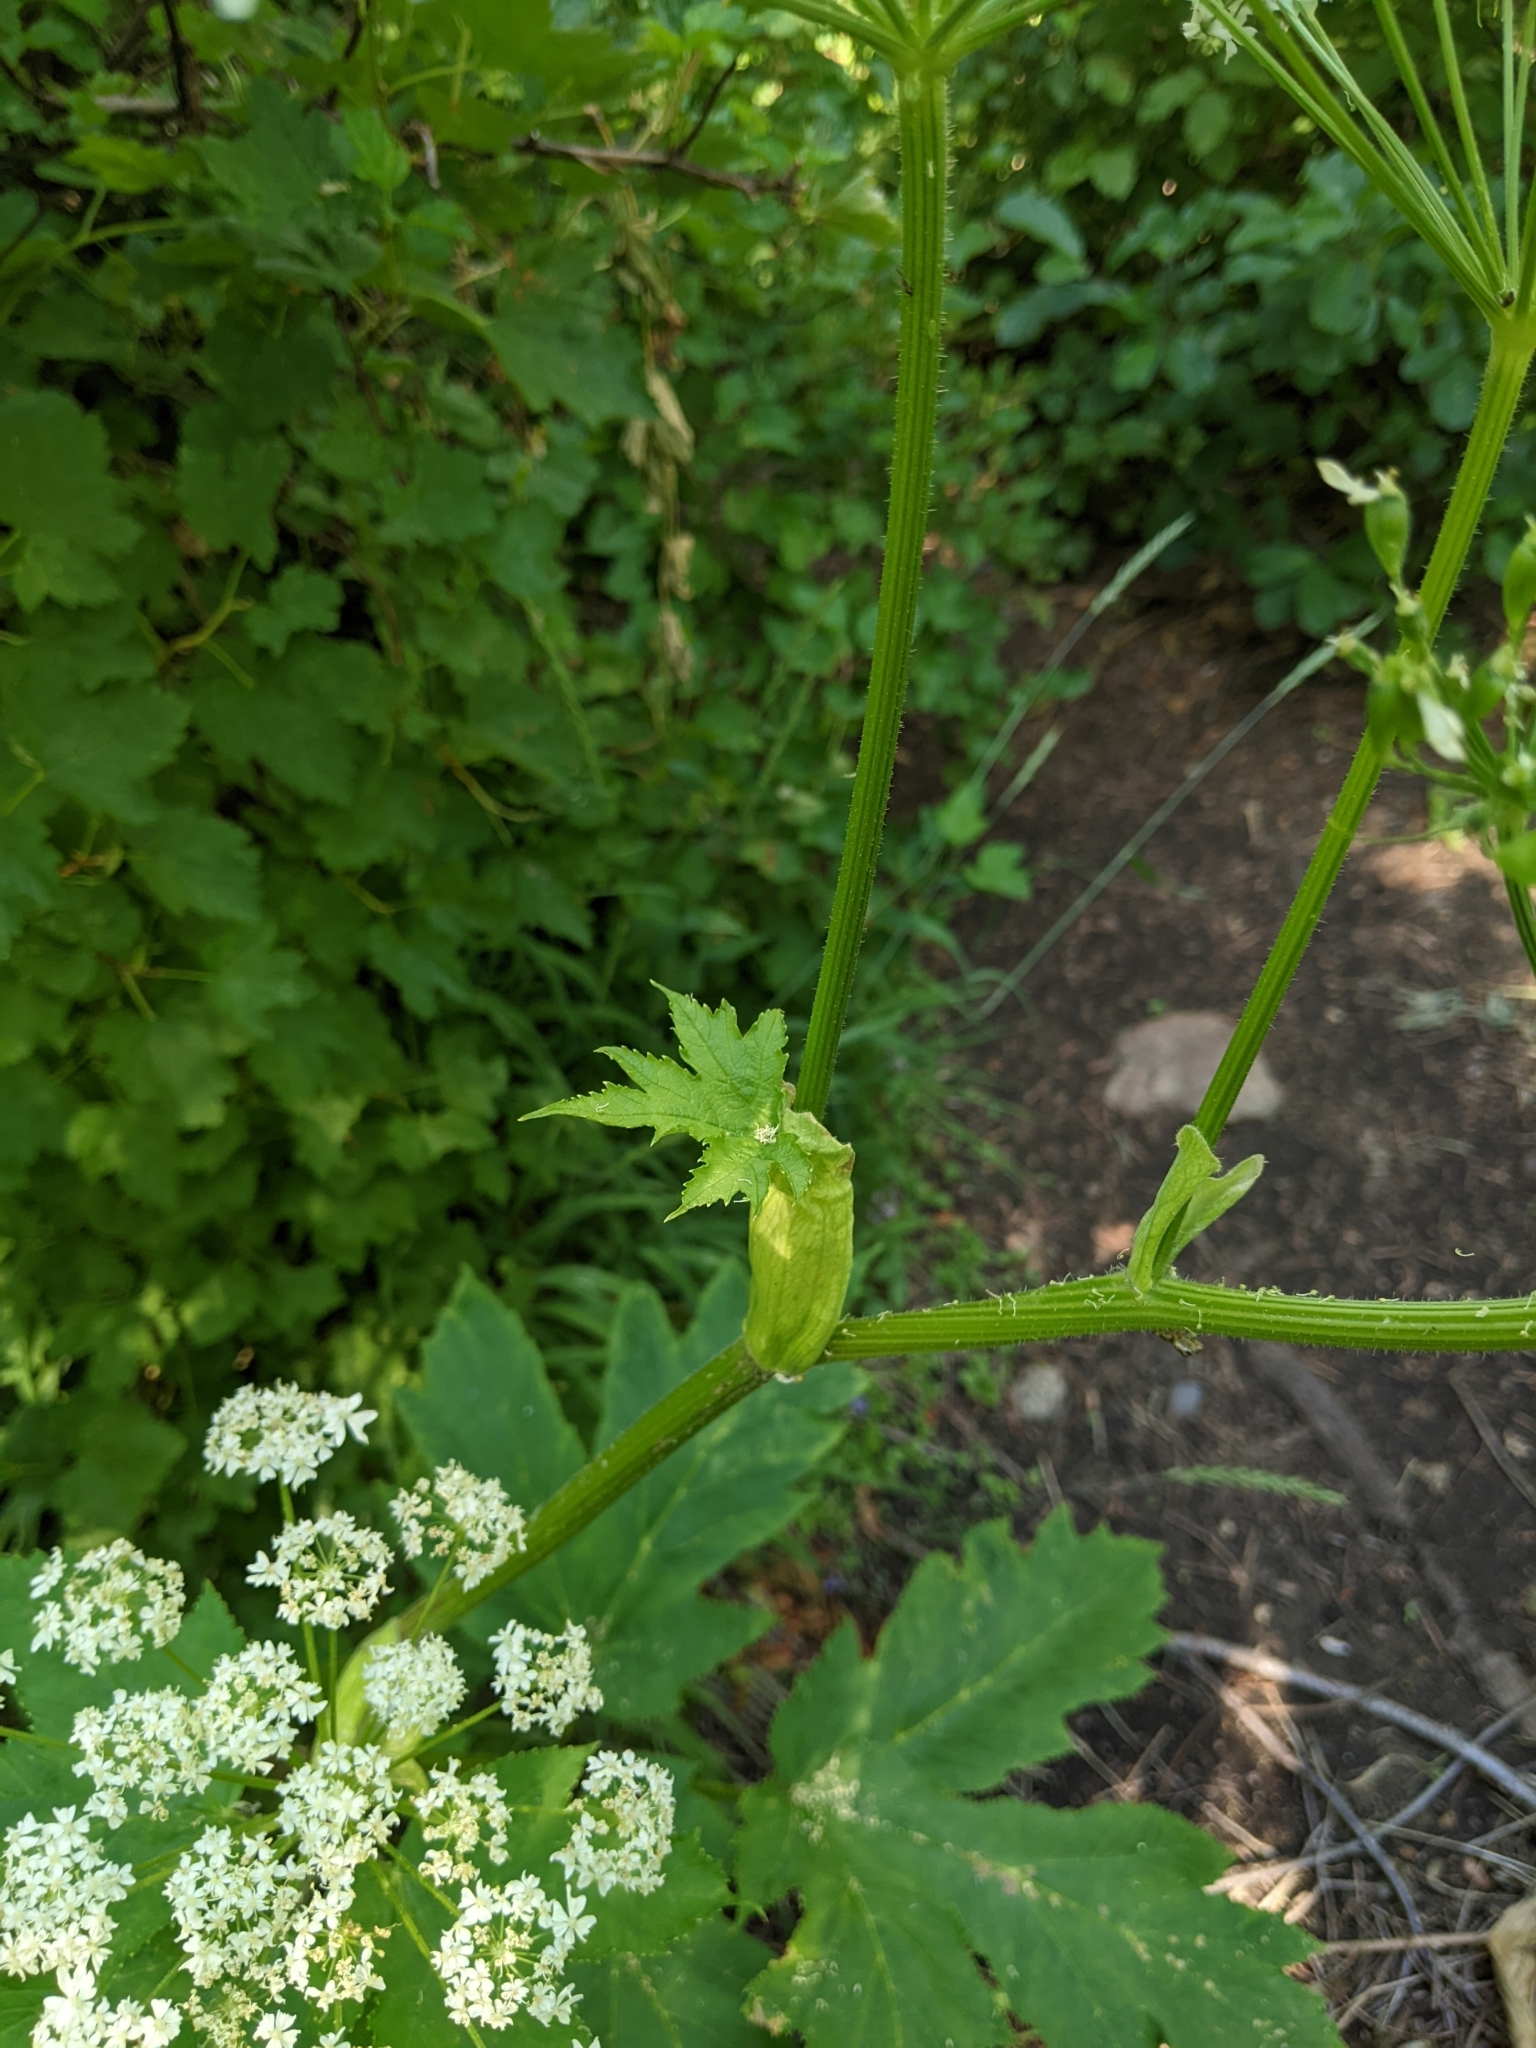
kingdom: Plantae
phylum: Tracheophyta
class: Magnoliopsida
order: Apiales
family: Apiaceae
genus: Heracleum
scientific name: Heracleum maximum
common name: American cow parsnip
